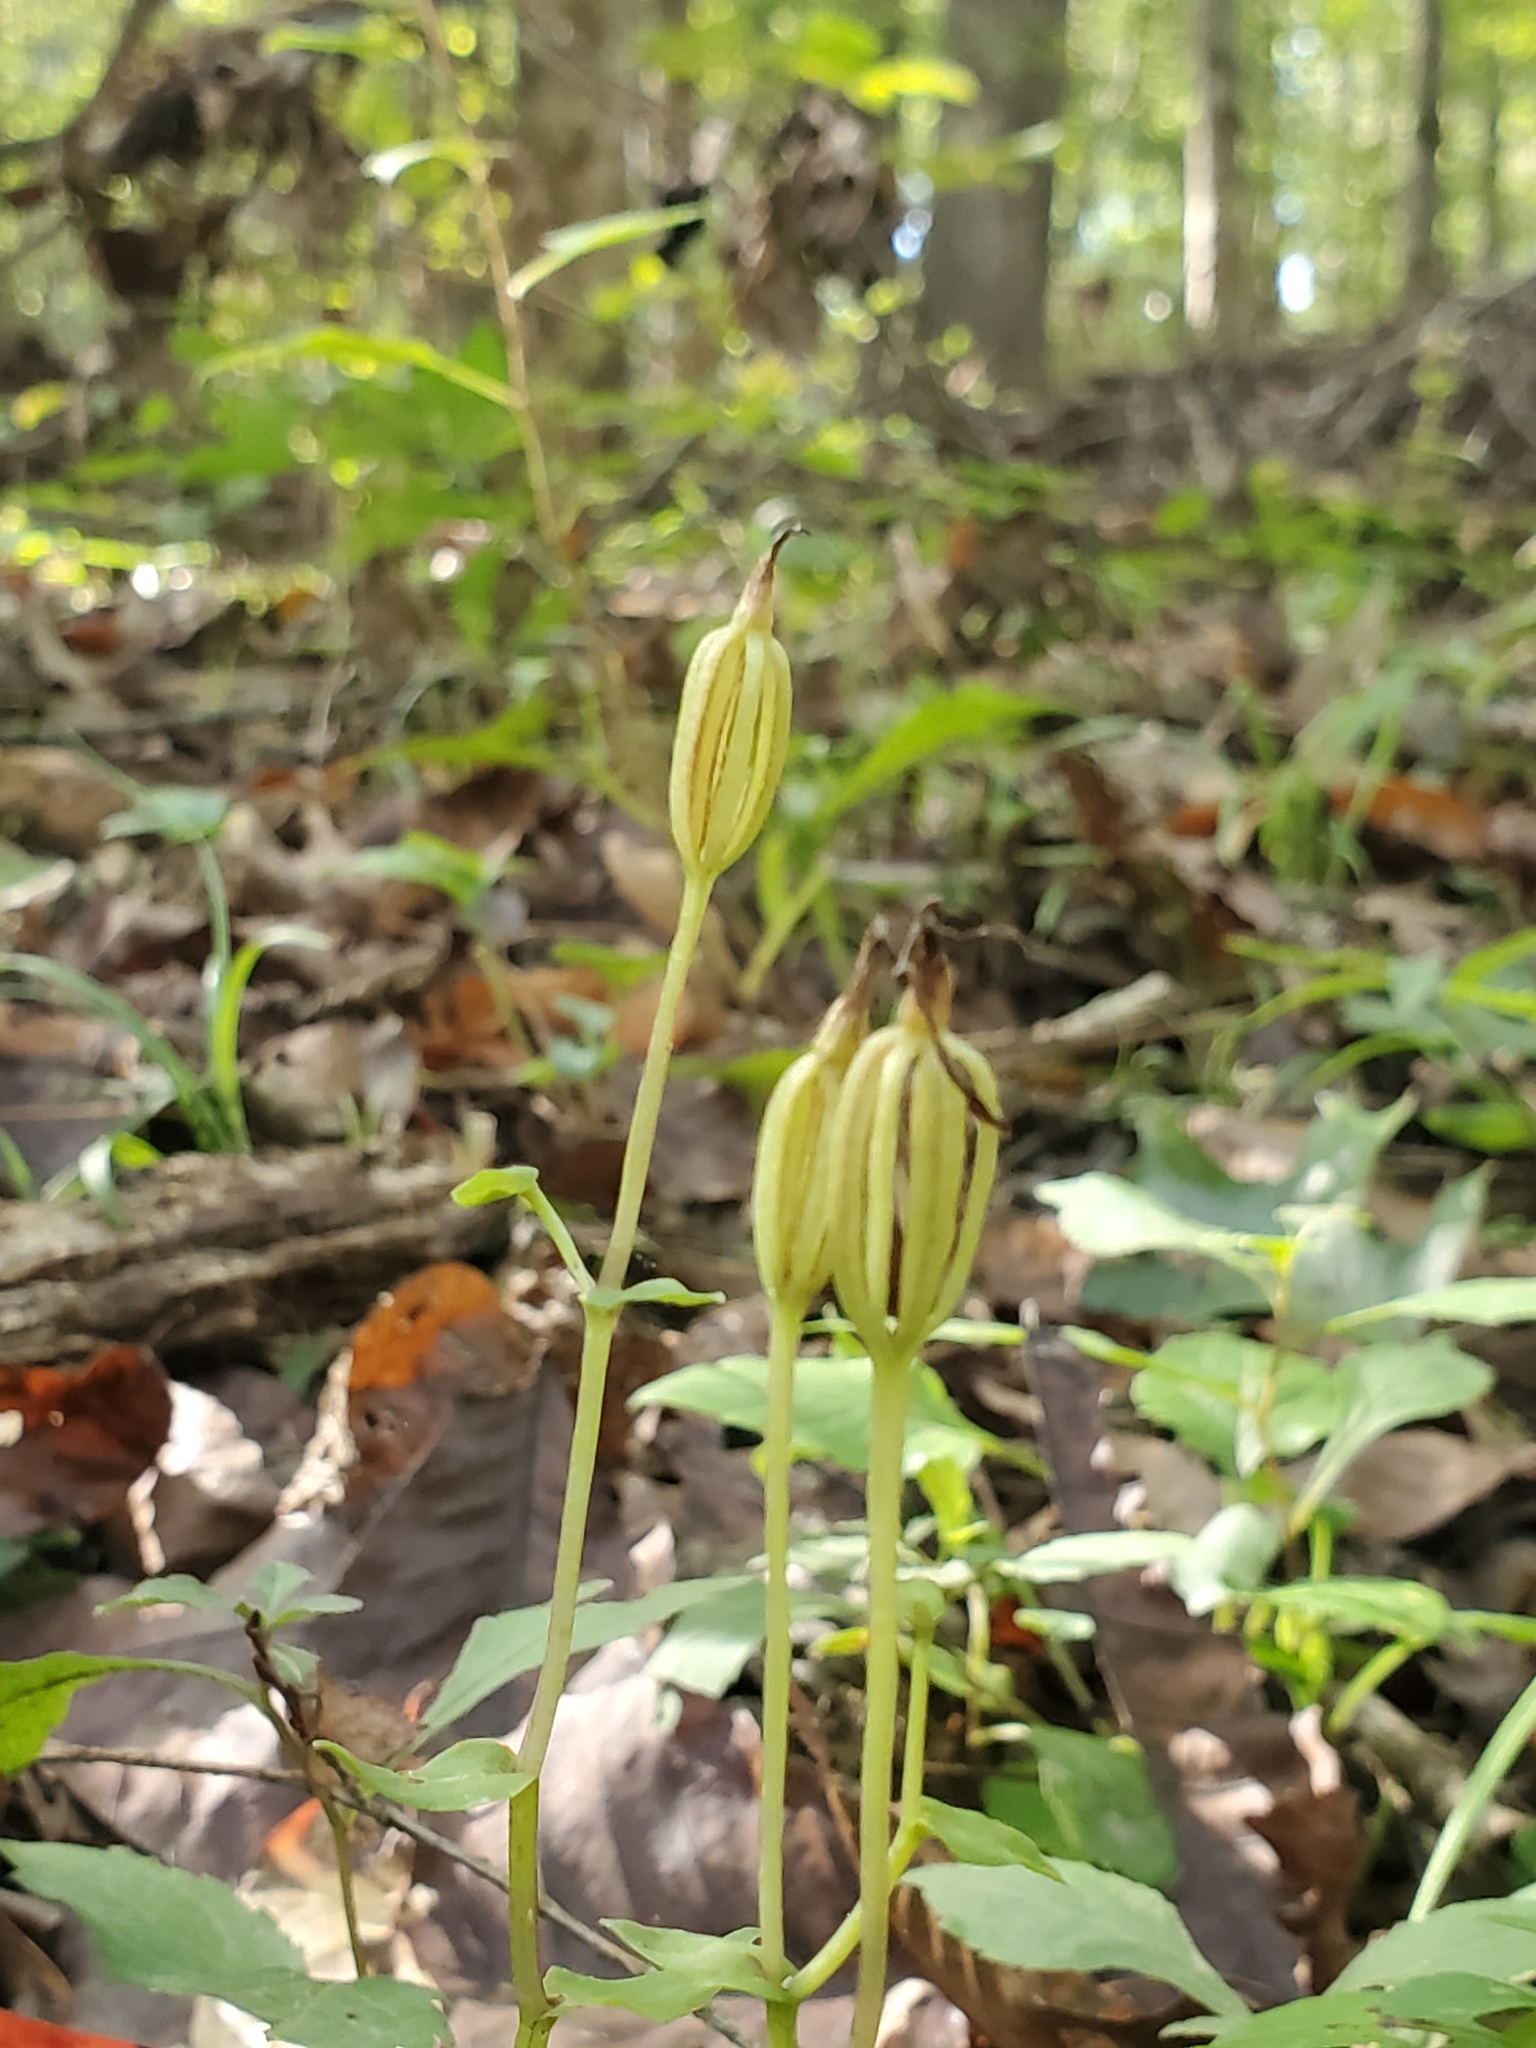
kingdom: Plantae
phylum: Tracheophyta
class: Liliopsida
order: Asparagales
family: Orchidaceae
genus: Triphora
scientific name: Triphora trianthophoros
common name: Three birds orchid
